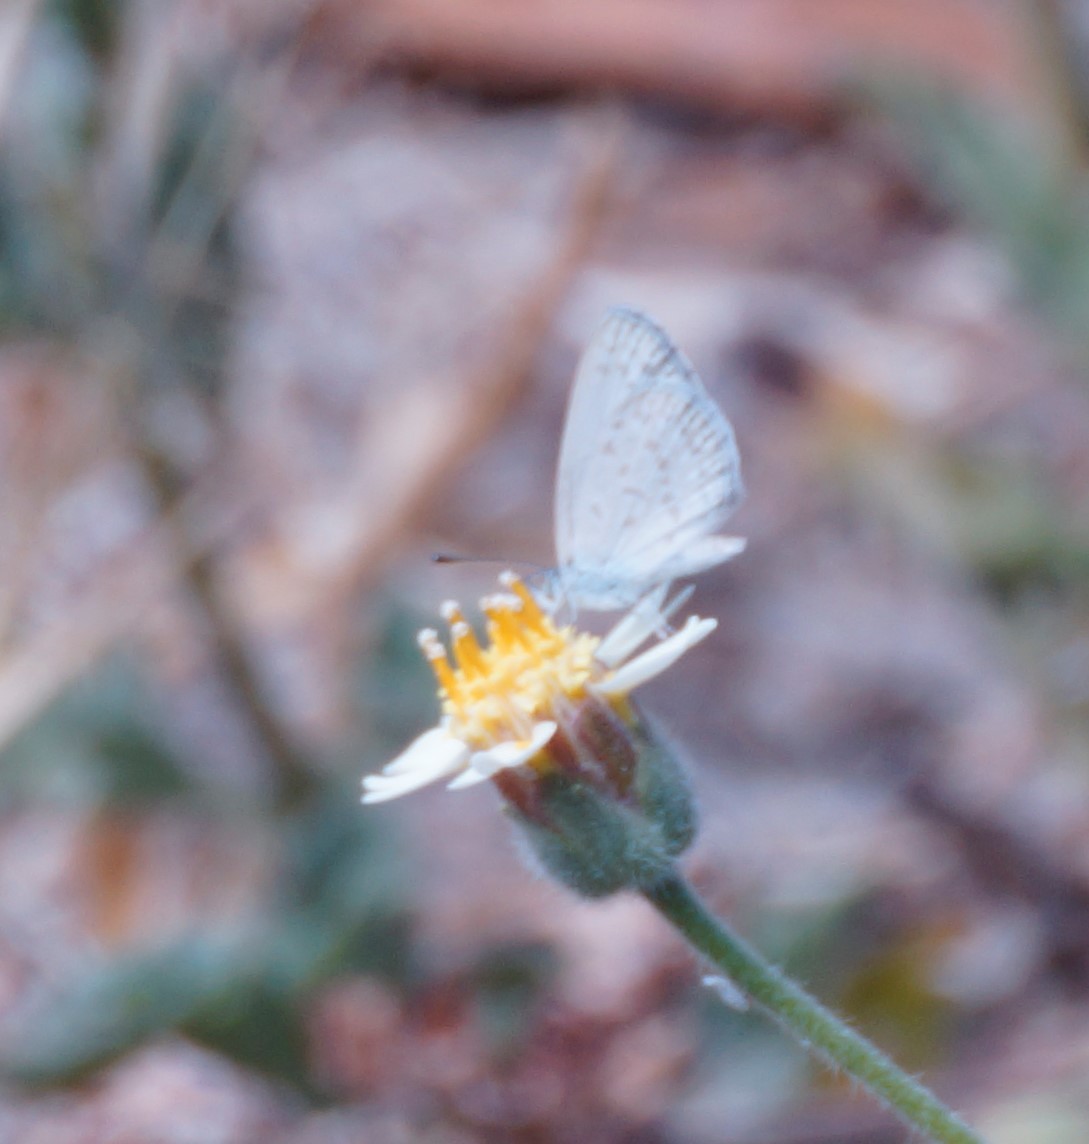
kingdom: Animalia
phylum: Arthropoda
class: Insecta
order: Lepidoptera
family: Lycaenidae
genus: Zizina
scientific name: Zizina labradus
